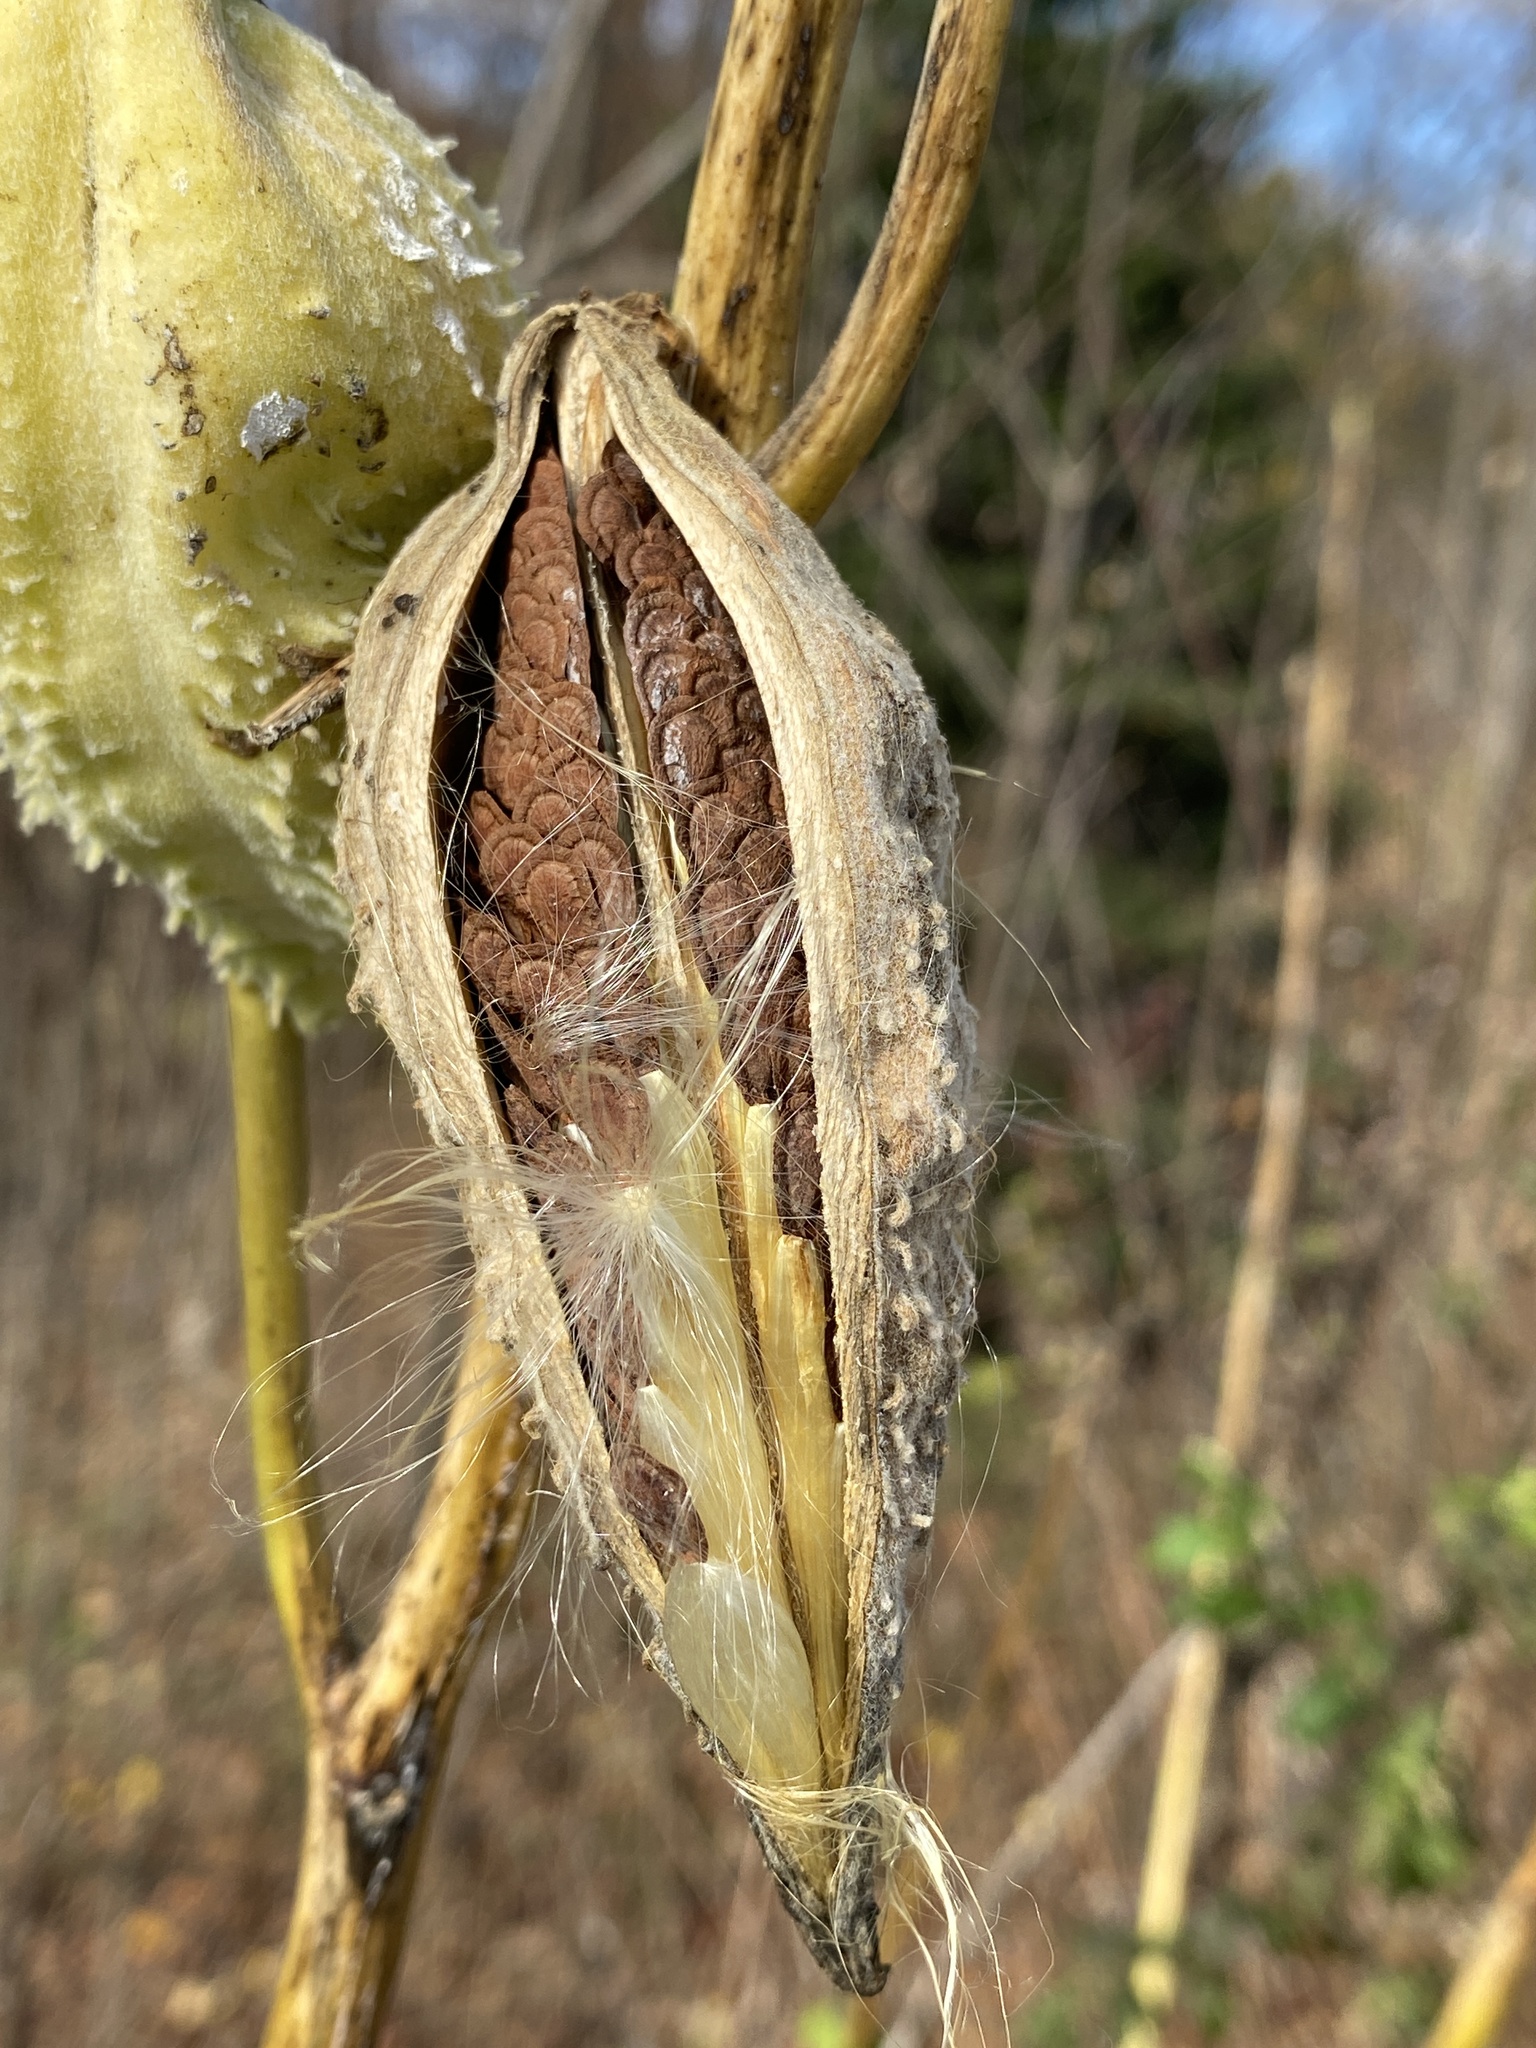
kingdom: Plantae
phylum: Tracheophyta
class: Magnoliopsida
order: Gentianales
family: Apocynaceae
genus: Asclepias
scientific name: Asclepias syriaca
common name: Common milkweed
